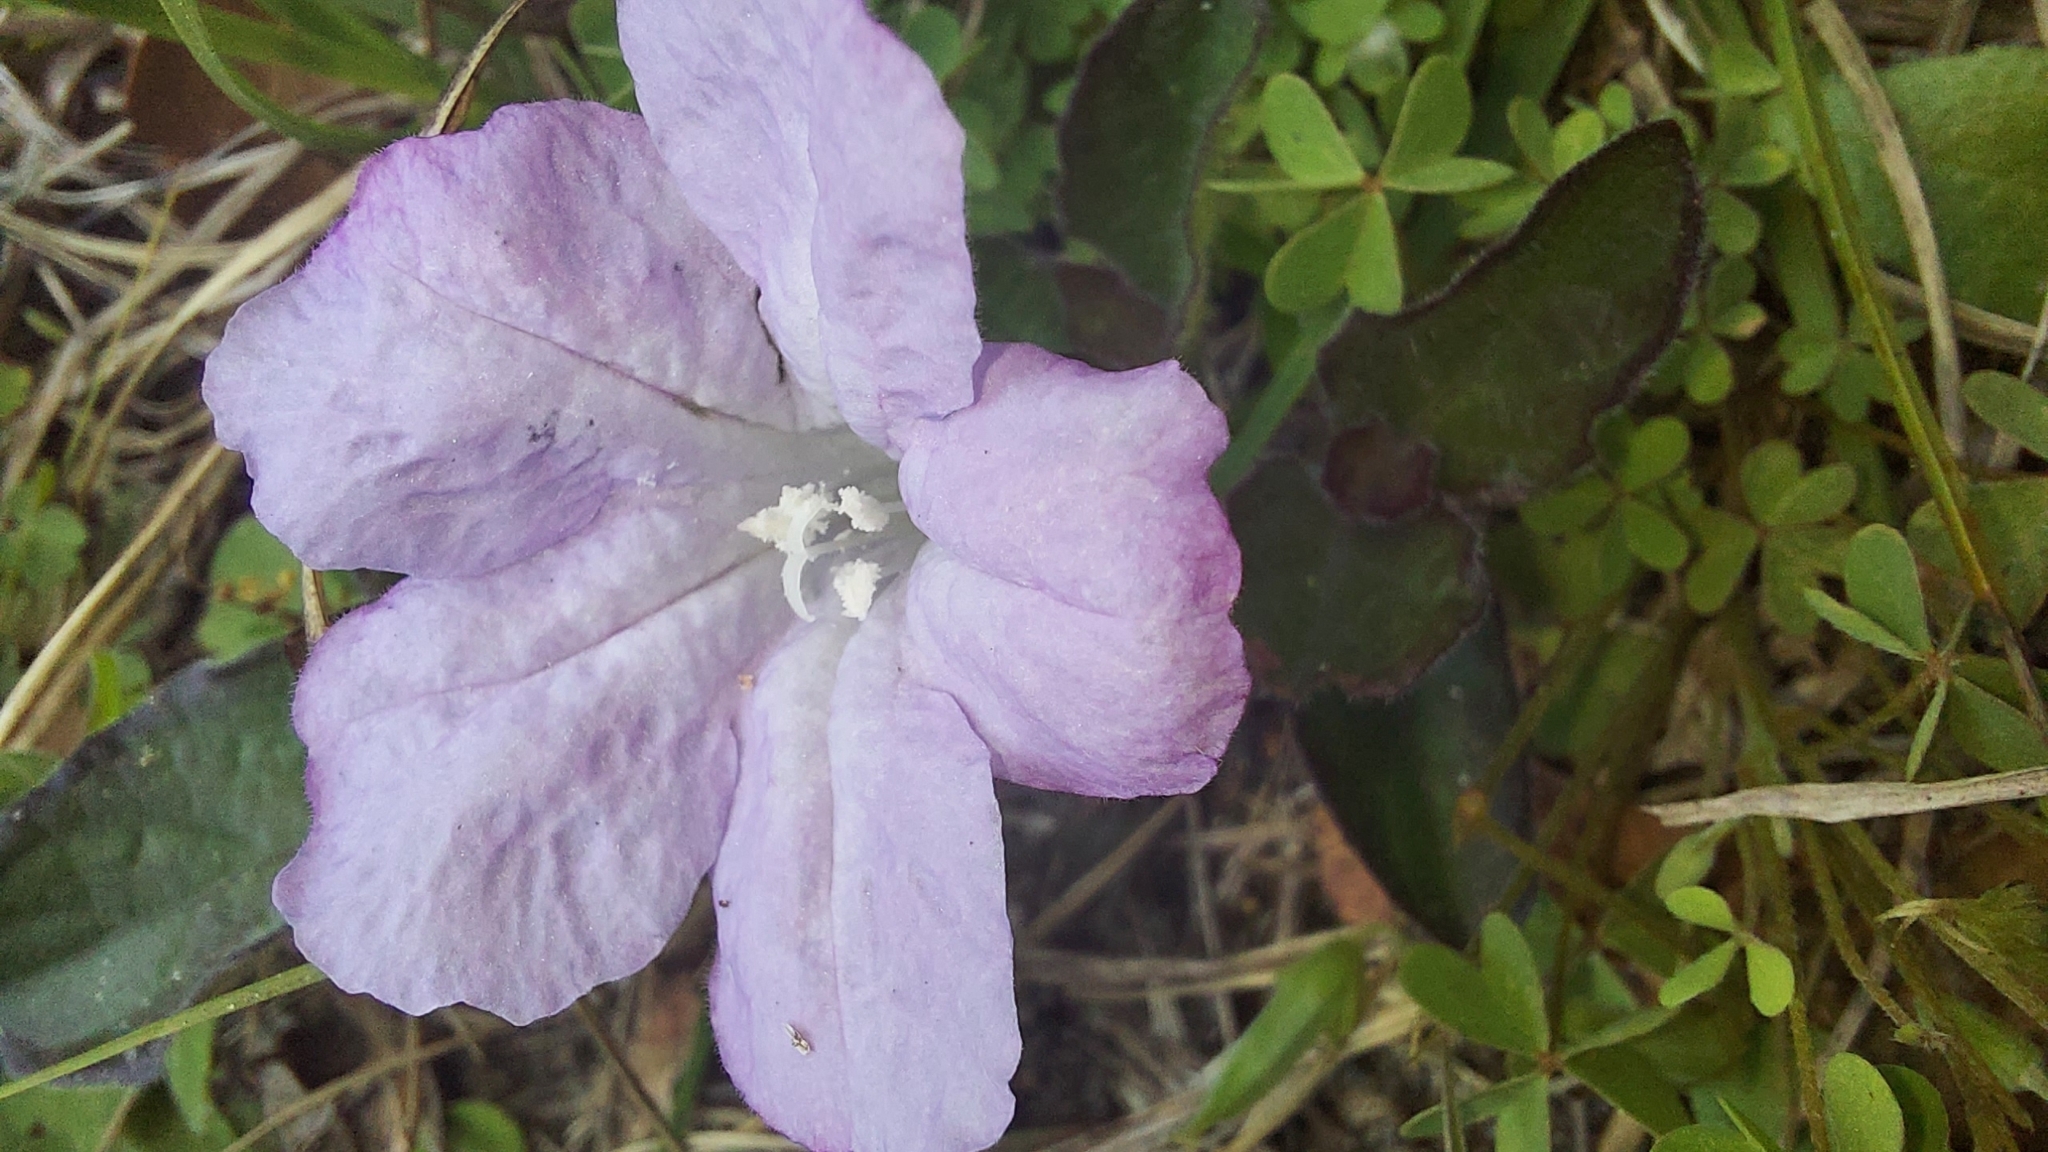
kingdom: Plantae
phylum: Tracheophyta
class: Magnoliopsida
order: Lamiales
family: Acanthaceae
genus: Ruellia
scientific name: Ruellia caroliniensis
